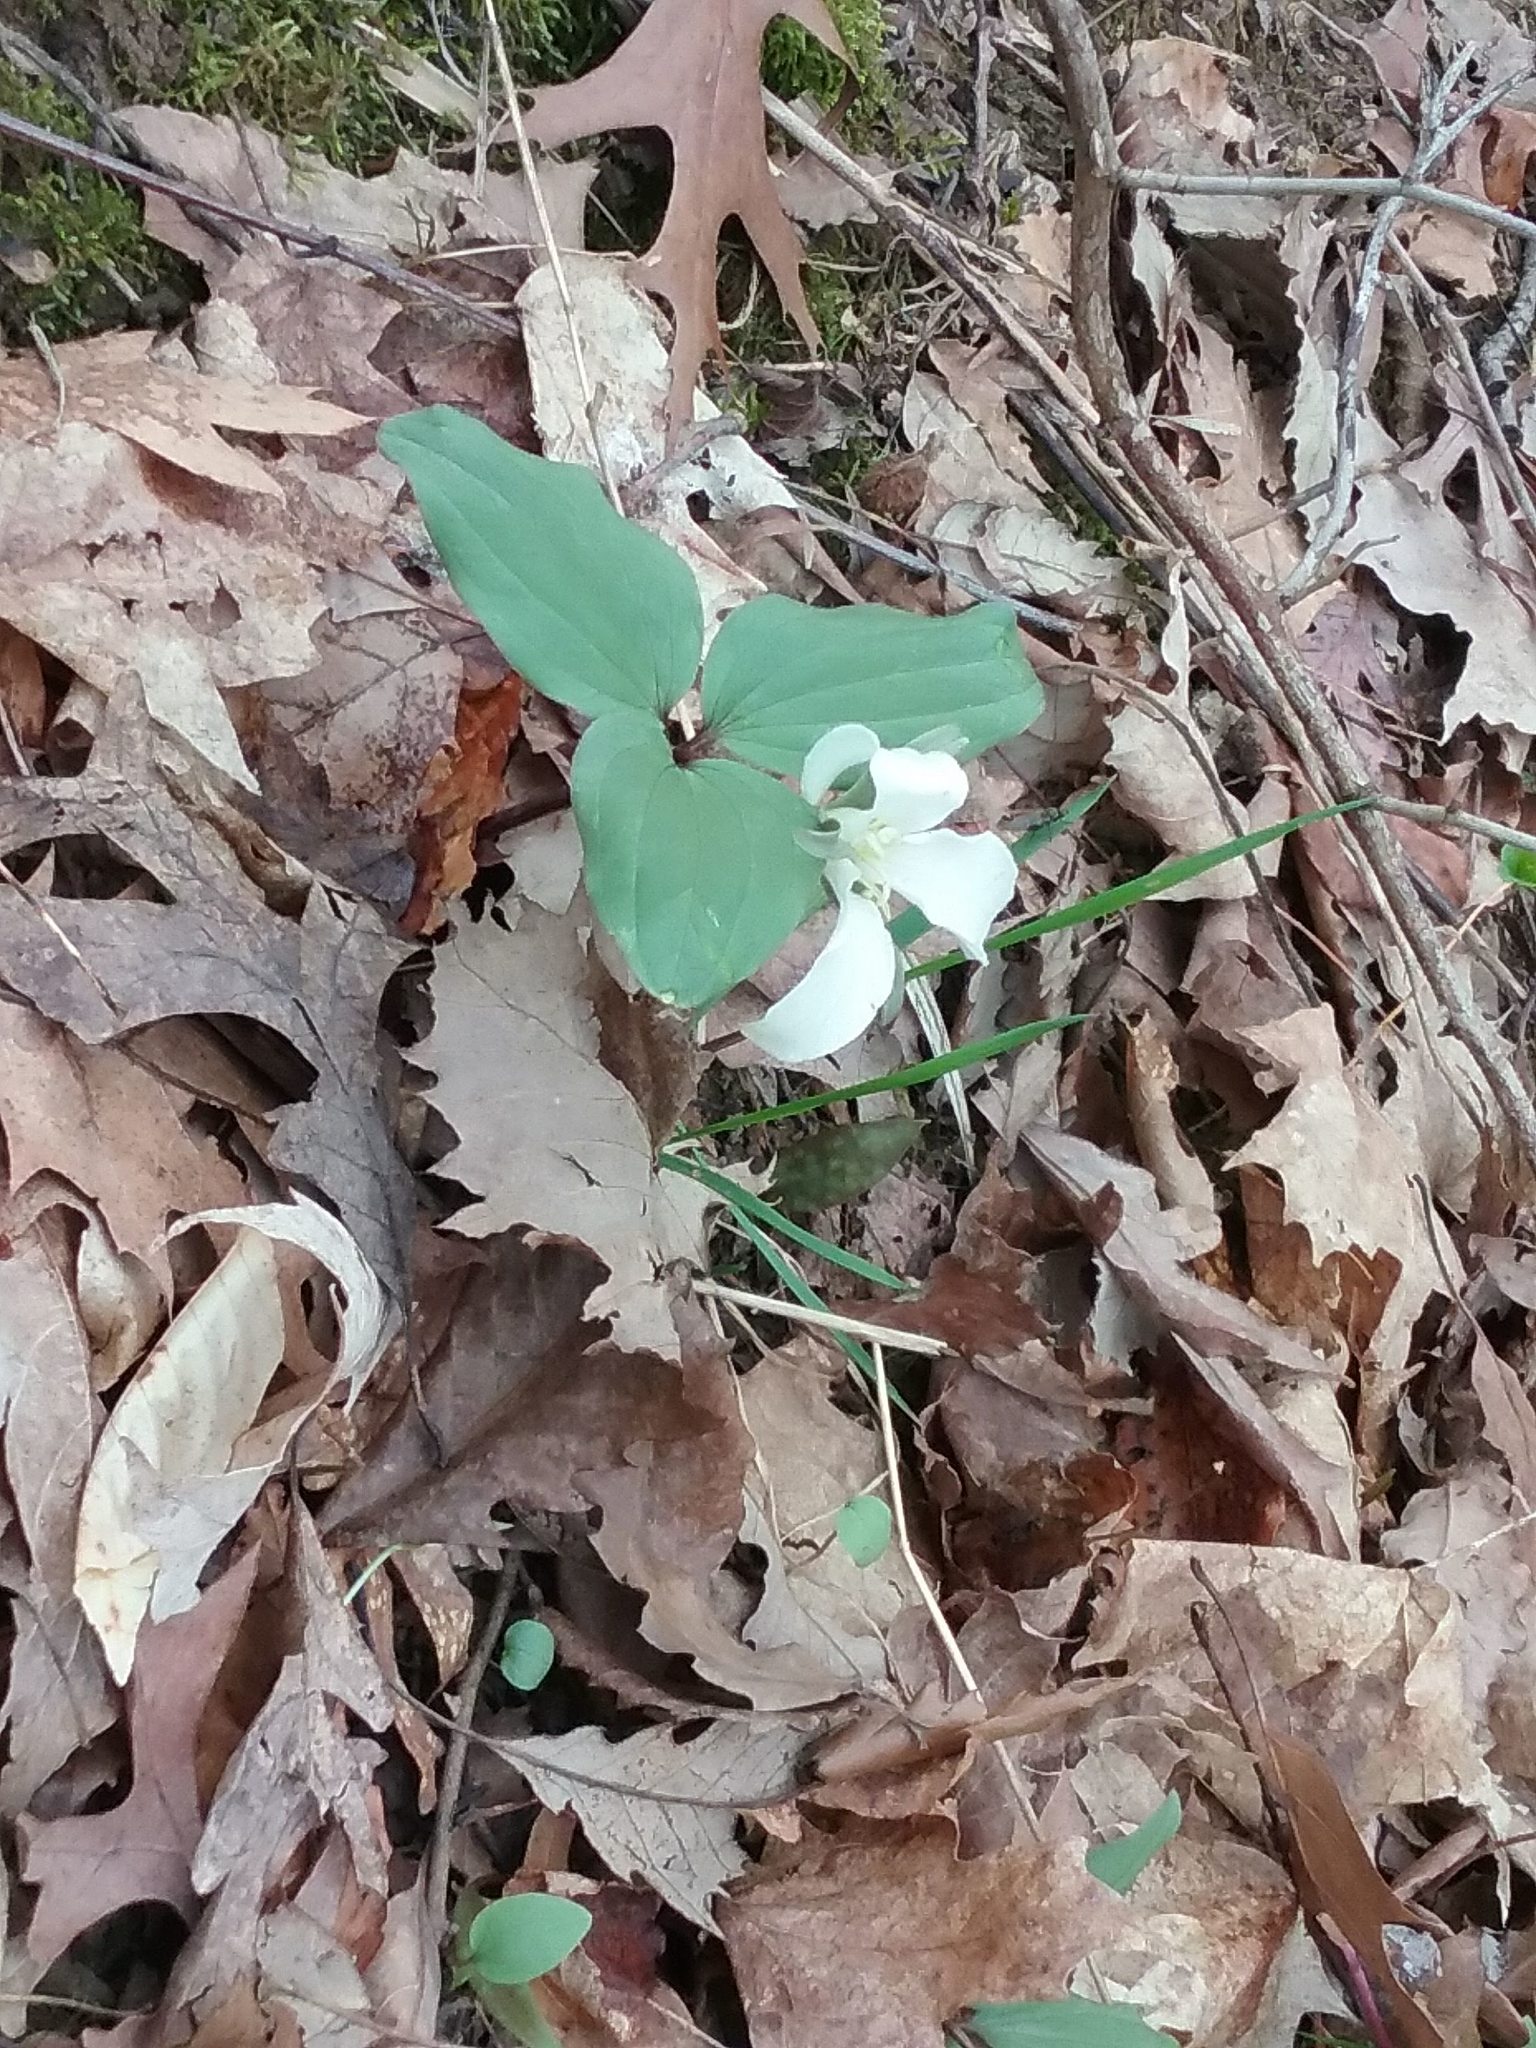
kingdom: Plantae
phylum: Tracheophyta
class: Liliopsida
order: Liliales
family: Melanthiaceae
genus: Trillium
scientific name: Trillium nivale
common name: Dwarf white trillium
